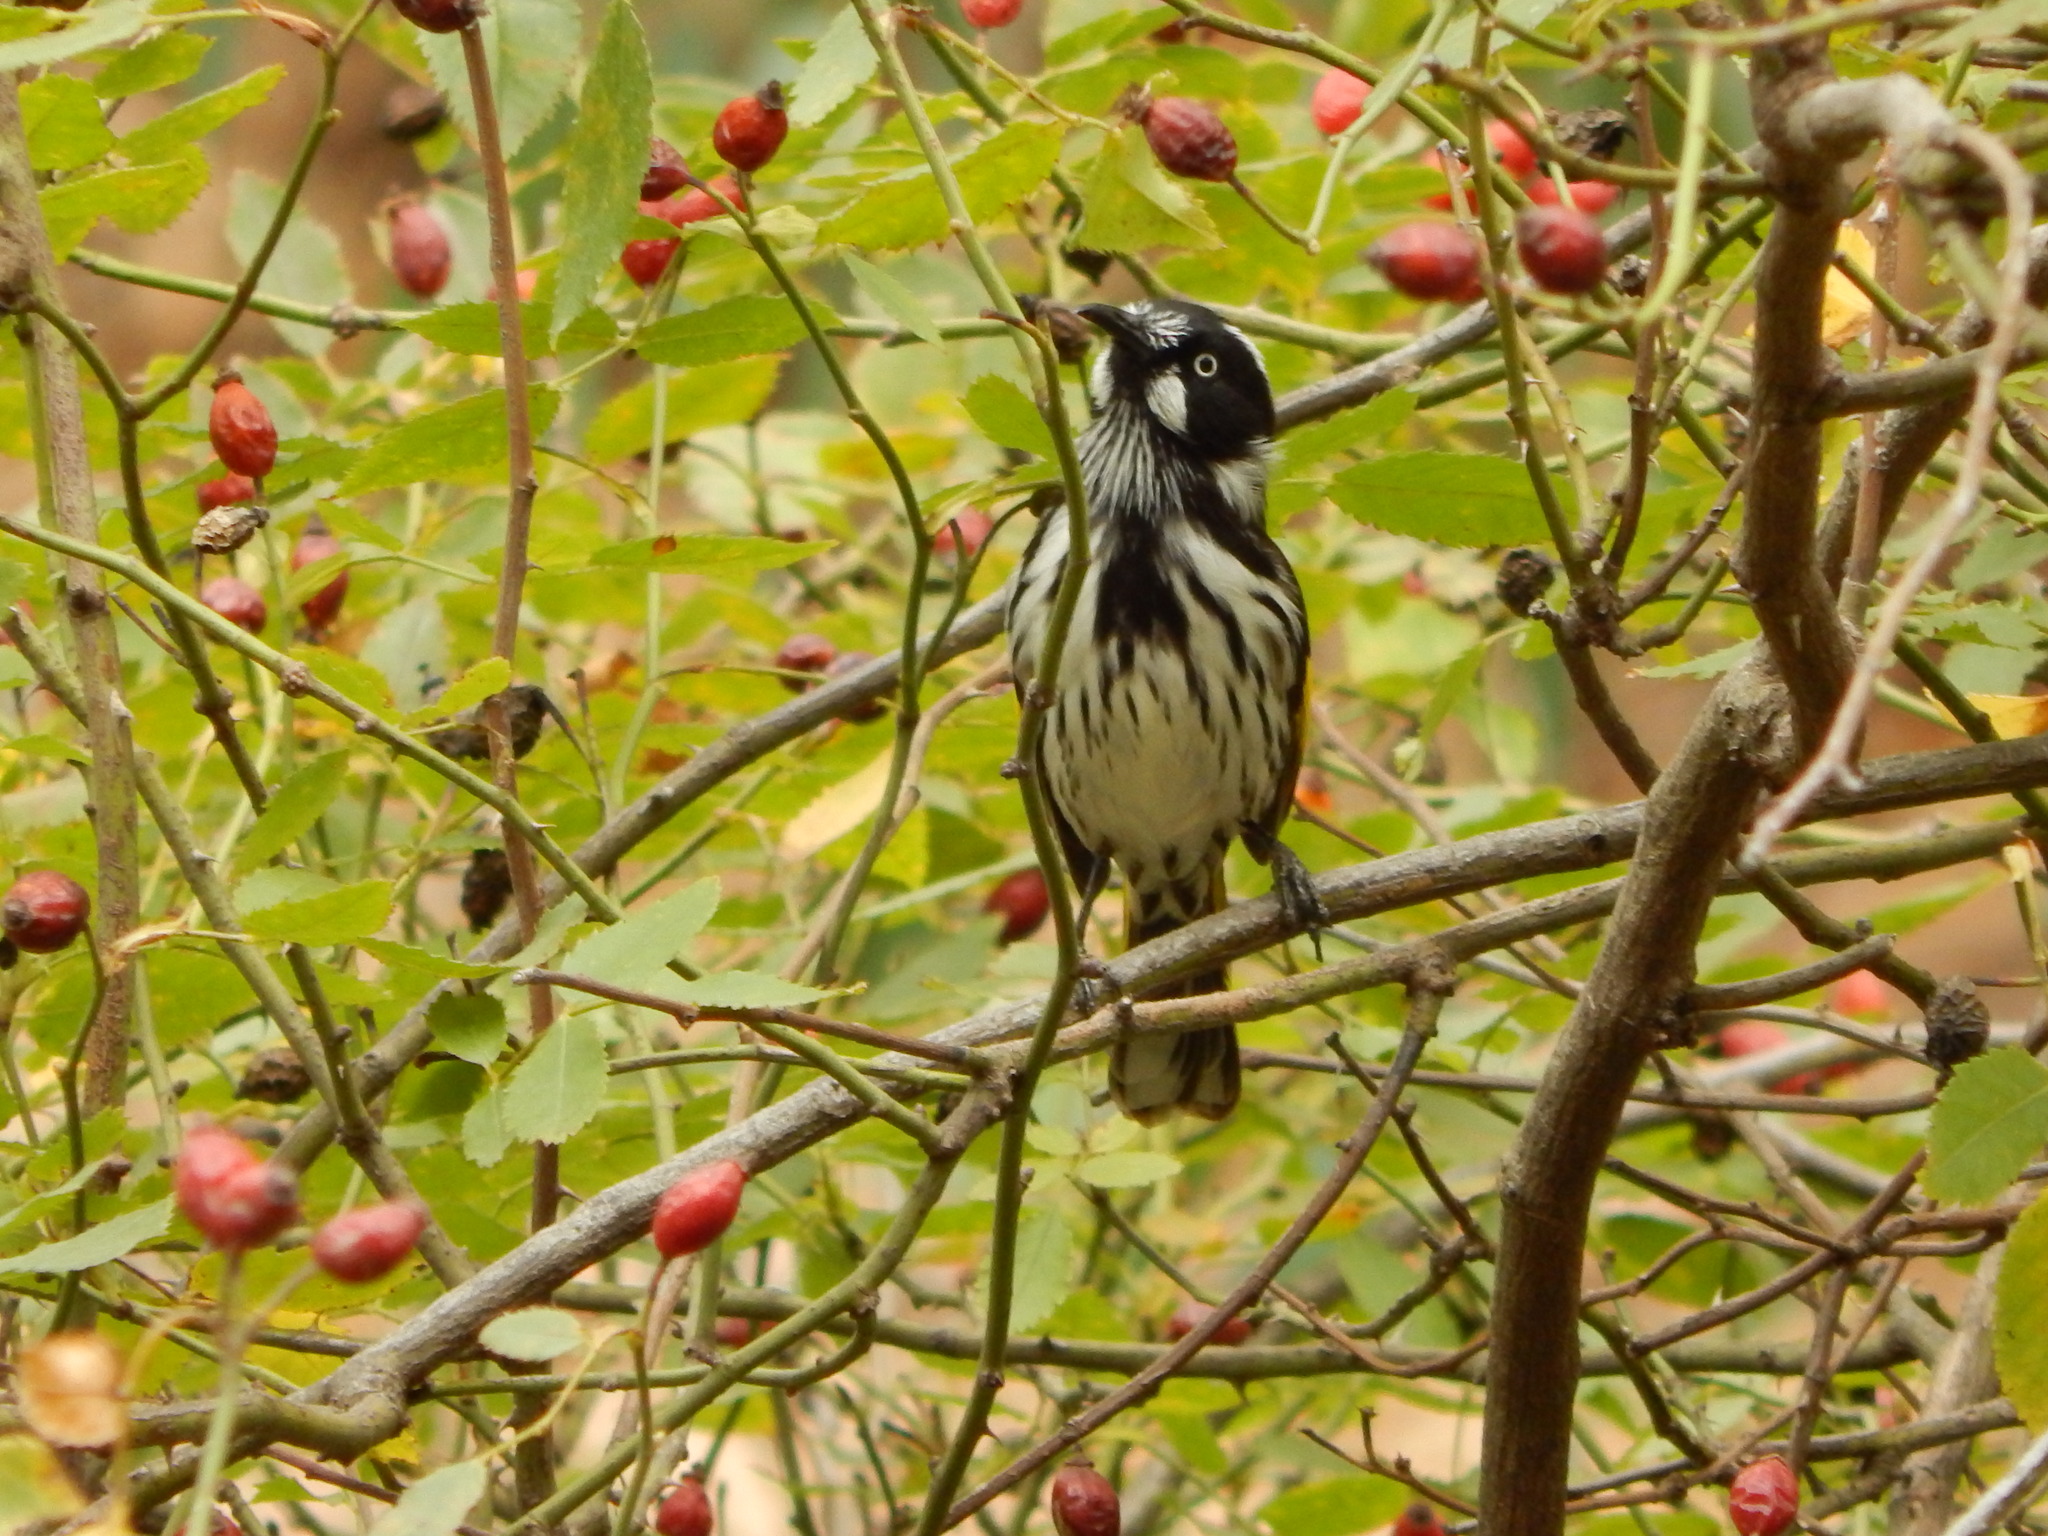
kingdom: Animalia
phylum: Chordata
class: Aves
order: Passeriformes
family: Meliphagidae
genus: Phylidonyris
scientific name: Phylidonyris novaehollandiae
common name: New holland honeyeater
